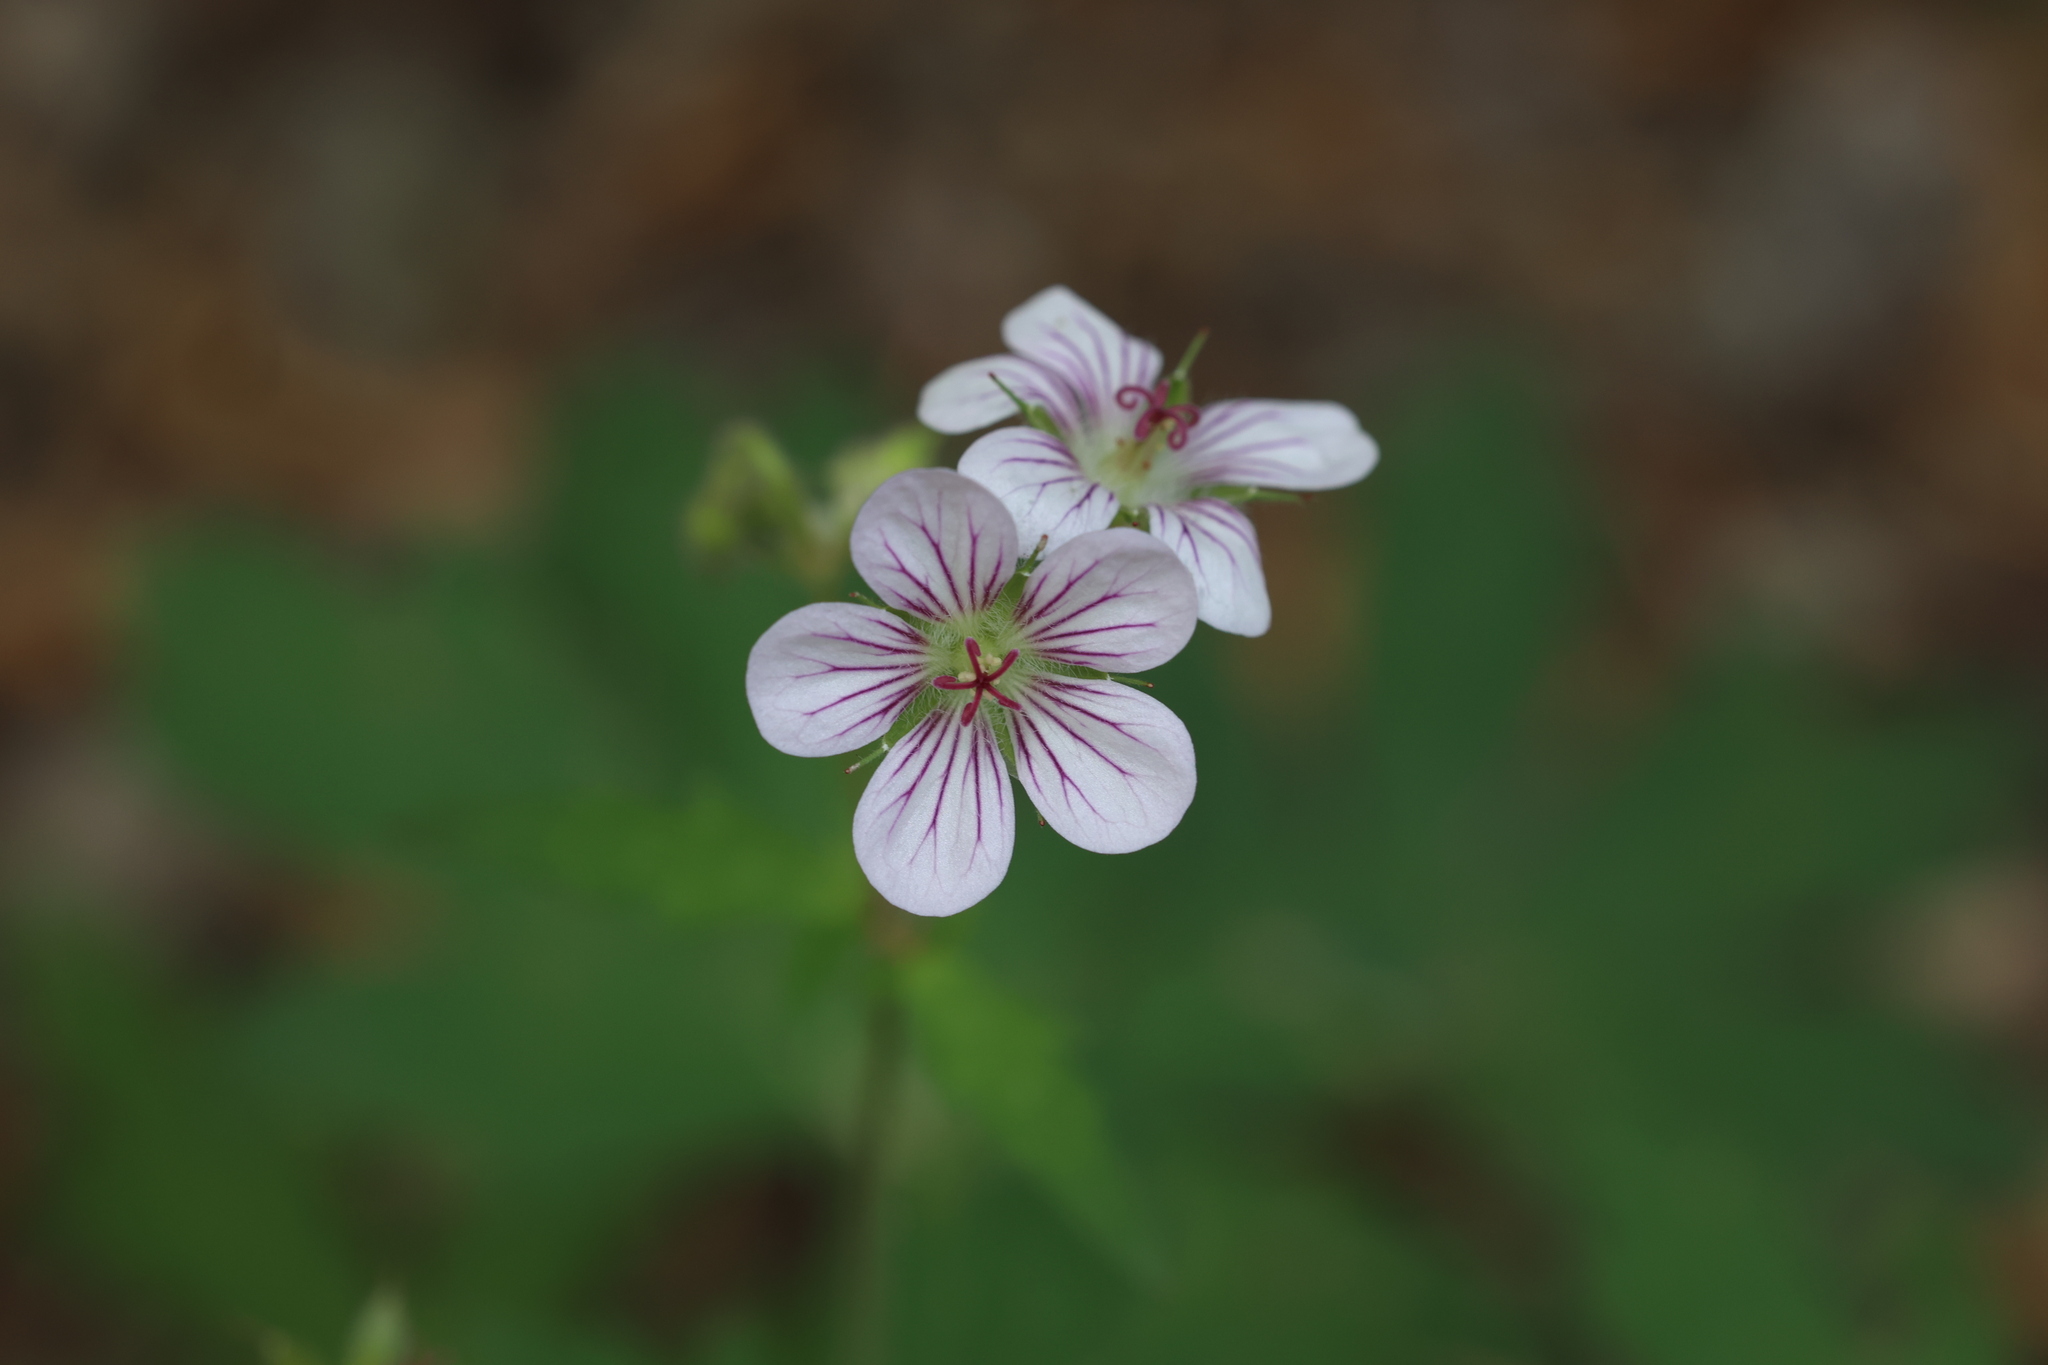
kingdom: Plantae
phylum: Tracheophyta
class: Magnoliopsida
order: Geraniales
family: Geraniaceae
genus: Geranium
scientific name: Geranium richardsonii
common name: Richardson's crane's-bill
